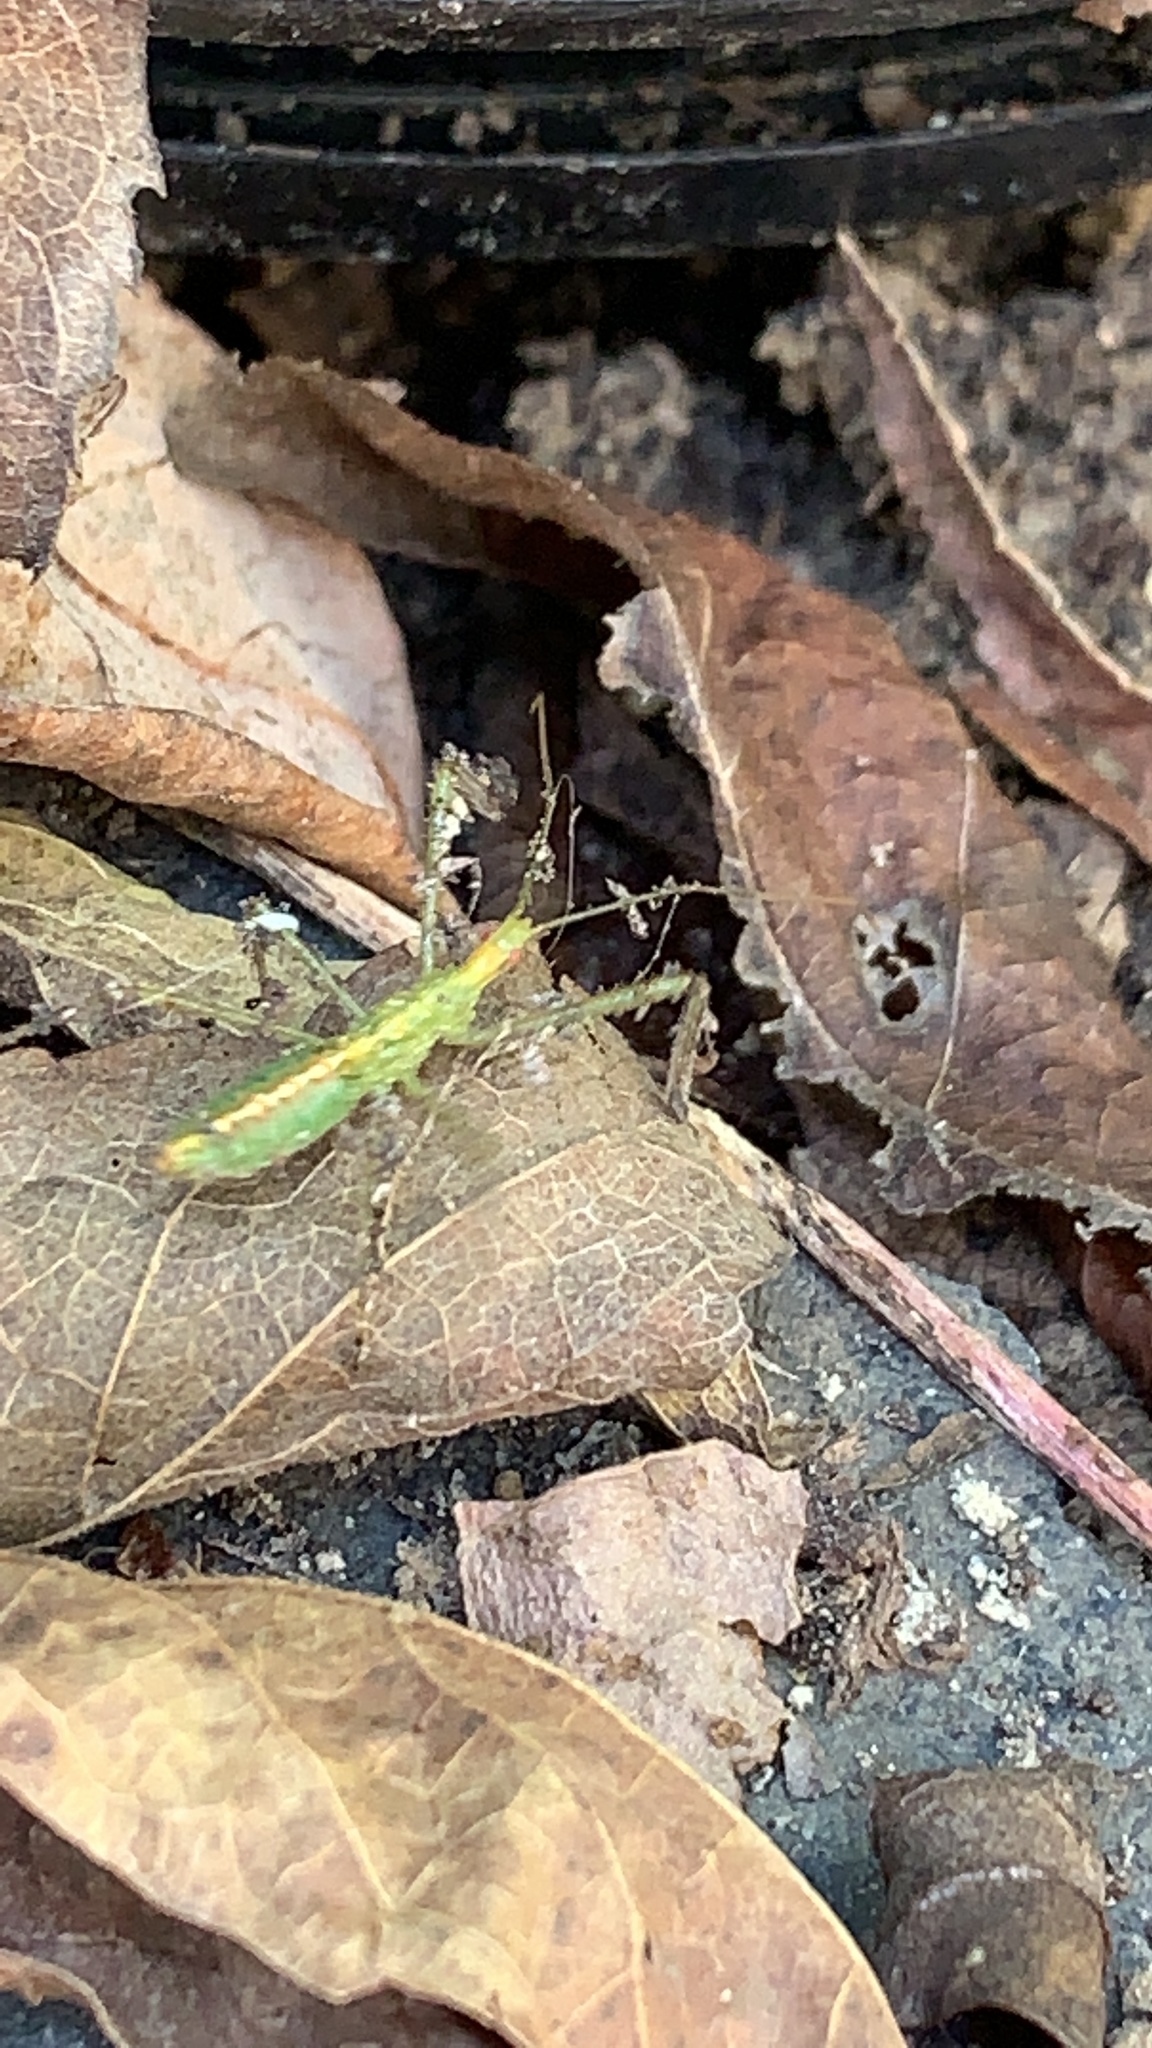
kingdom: Animalia
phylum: Arthropoda
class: Insecta
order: Hemiptera
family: Reduviidae
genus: Zelus
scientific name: Zelus luridus
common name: Pale green assassin bug
